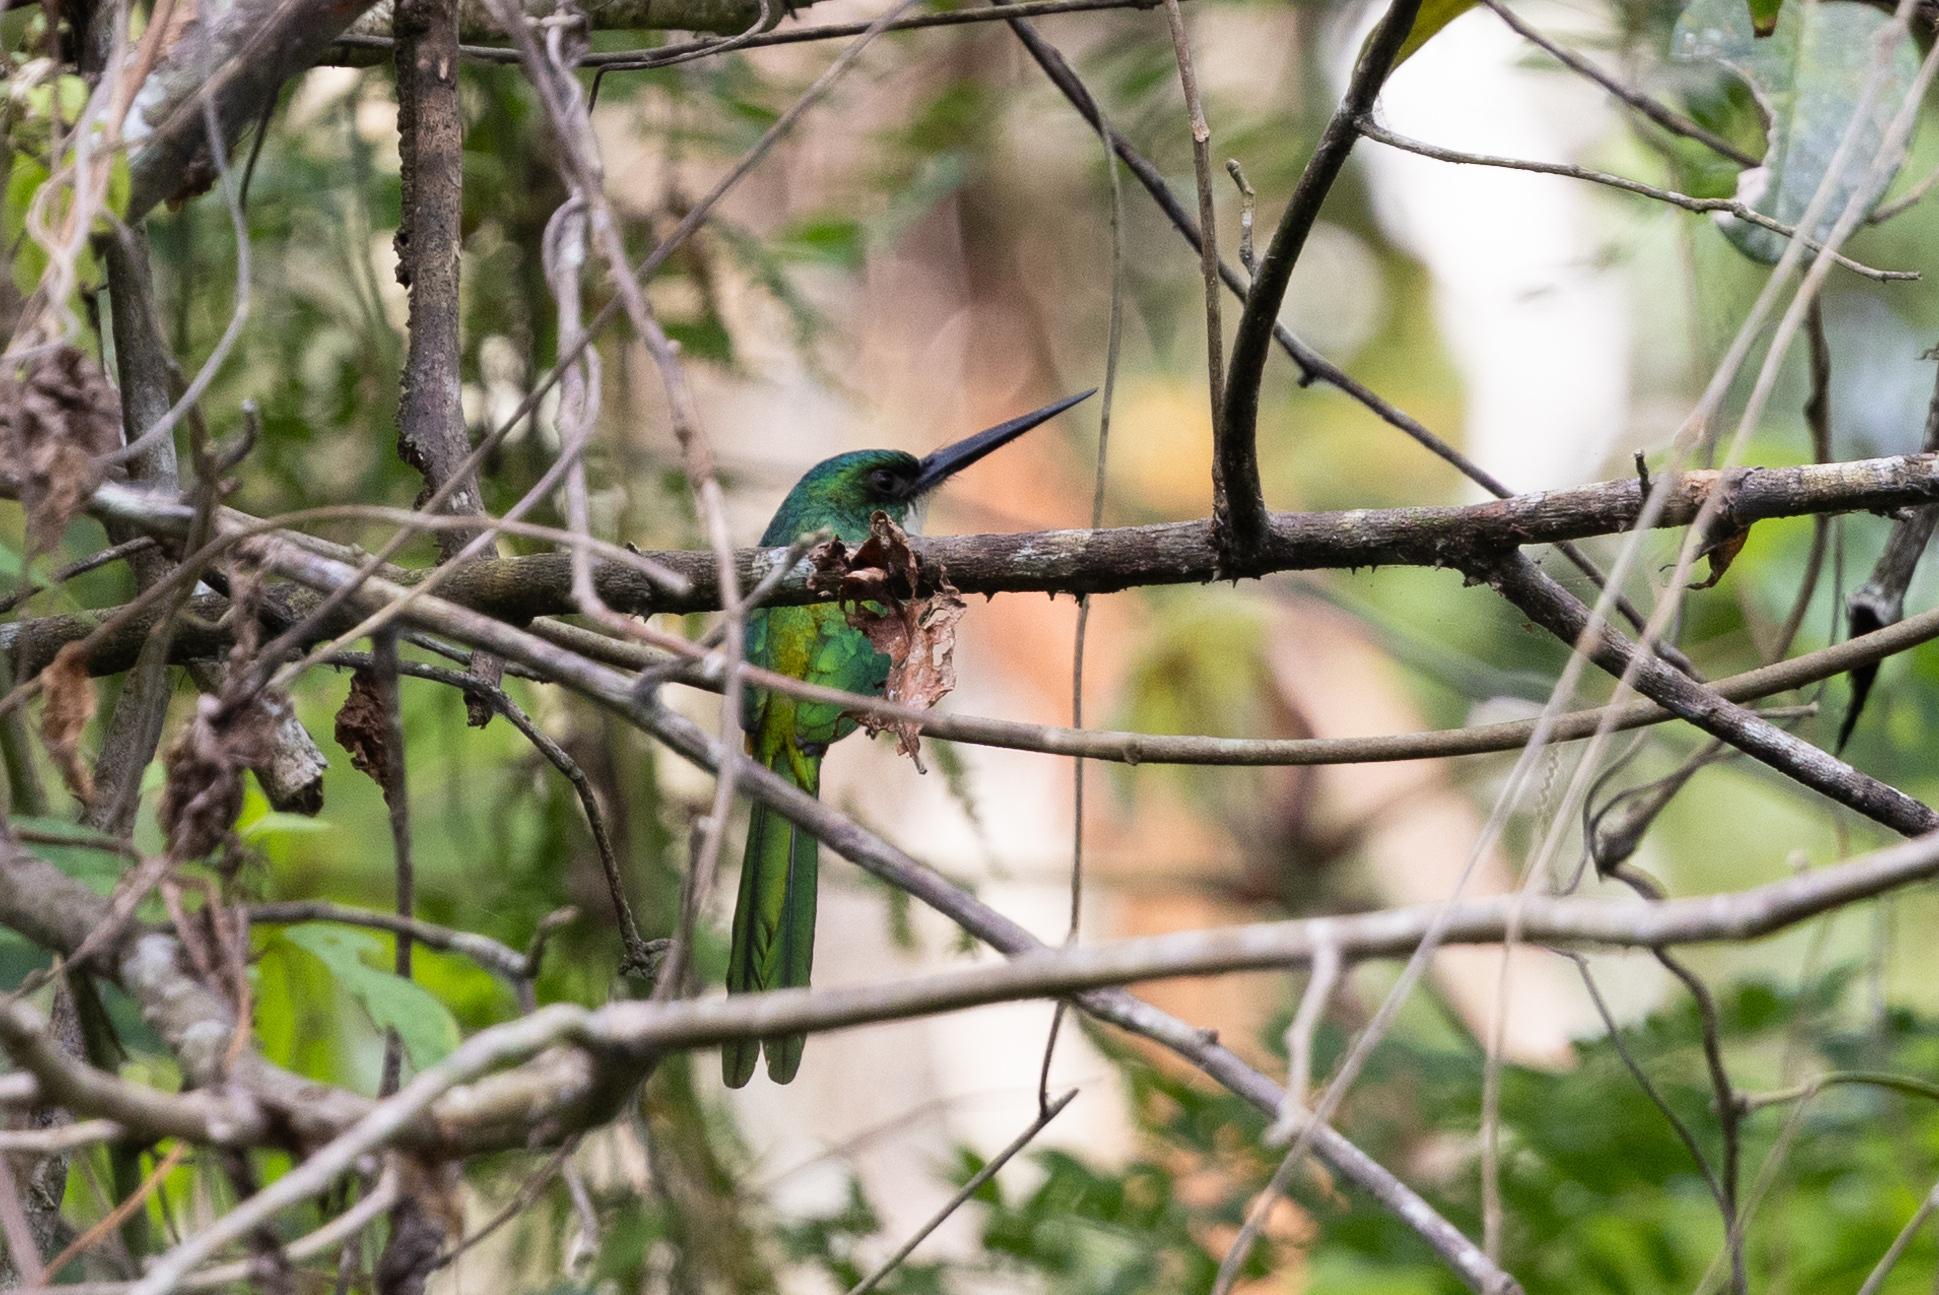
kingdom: Animalia
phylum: Chordata
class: Aves
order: Piciformes
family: Galbulidae
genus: Galbula
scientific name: Galbula ruficauda
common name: Rufous-tailed jacamar
